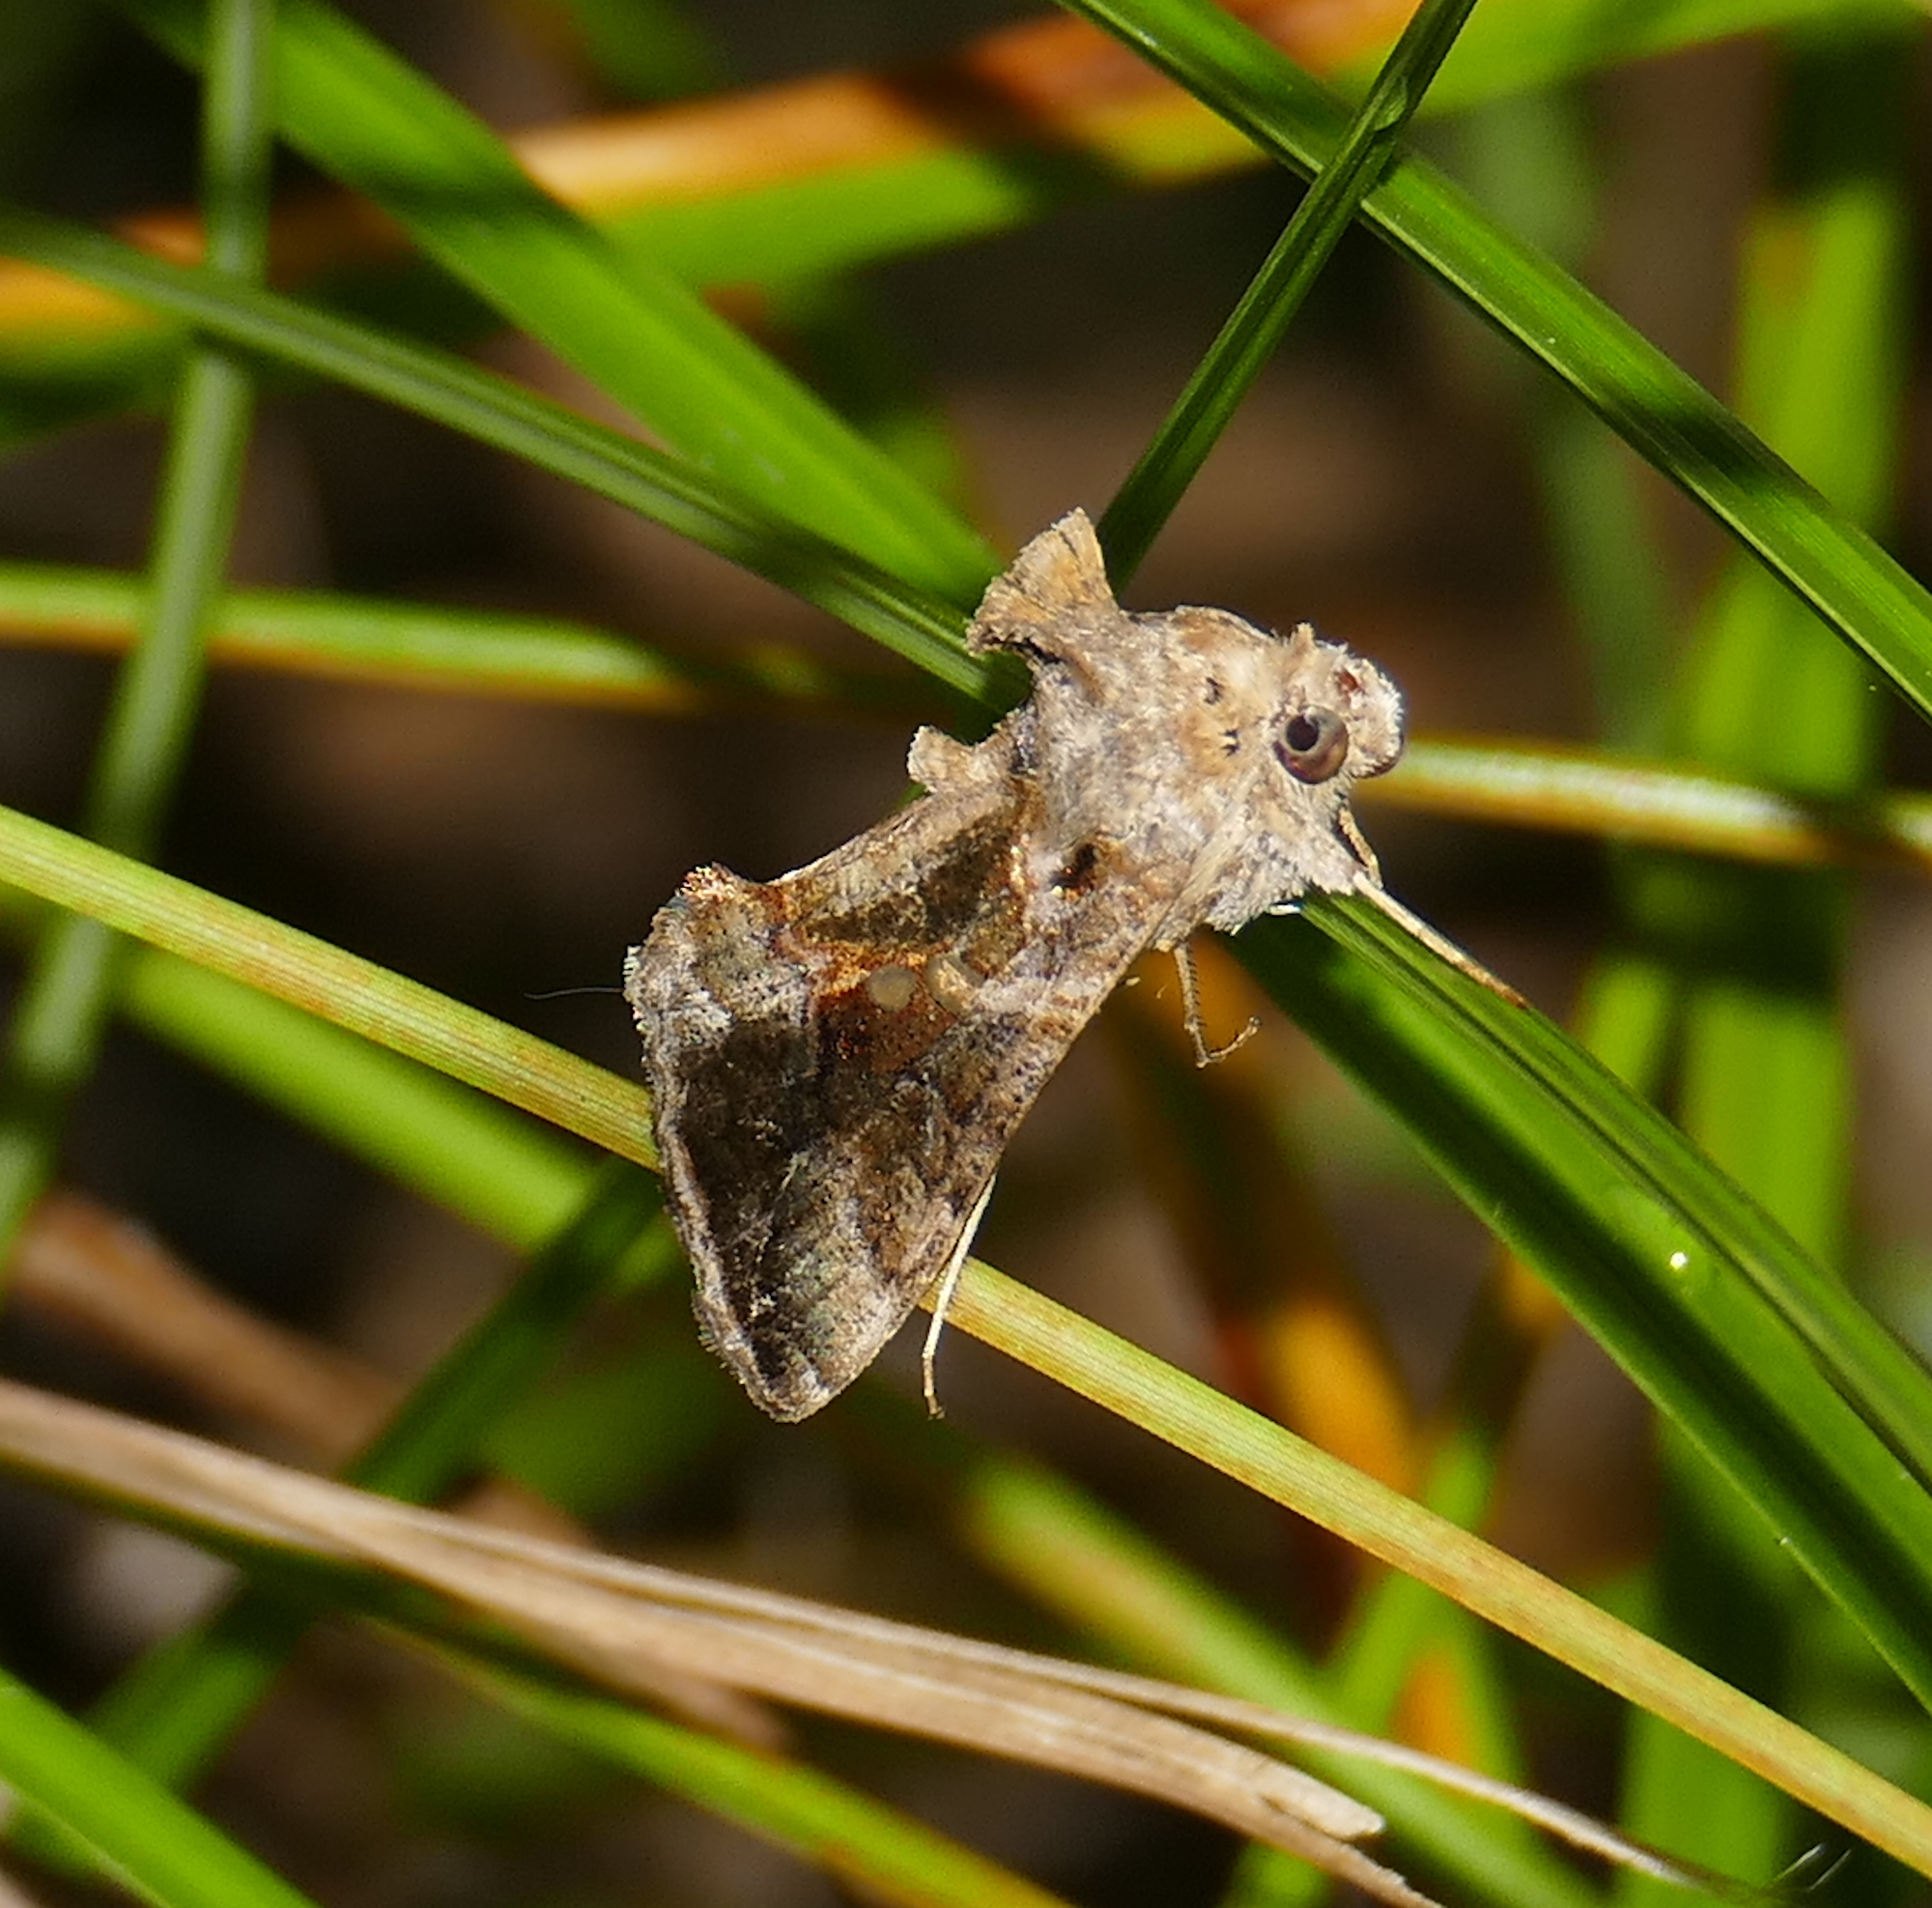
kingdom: Animalia
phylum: Arthropoda
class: Insecta
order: Lepidoptera
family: Noctuidae
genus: Chrysodeixis
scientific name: Chrysodeixis includens
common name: Cutworm moth
